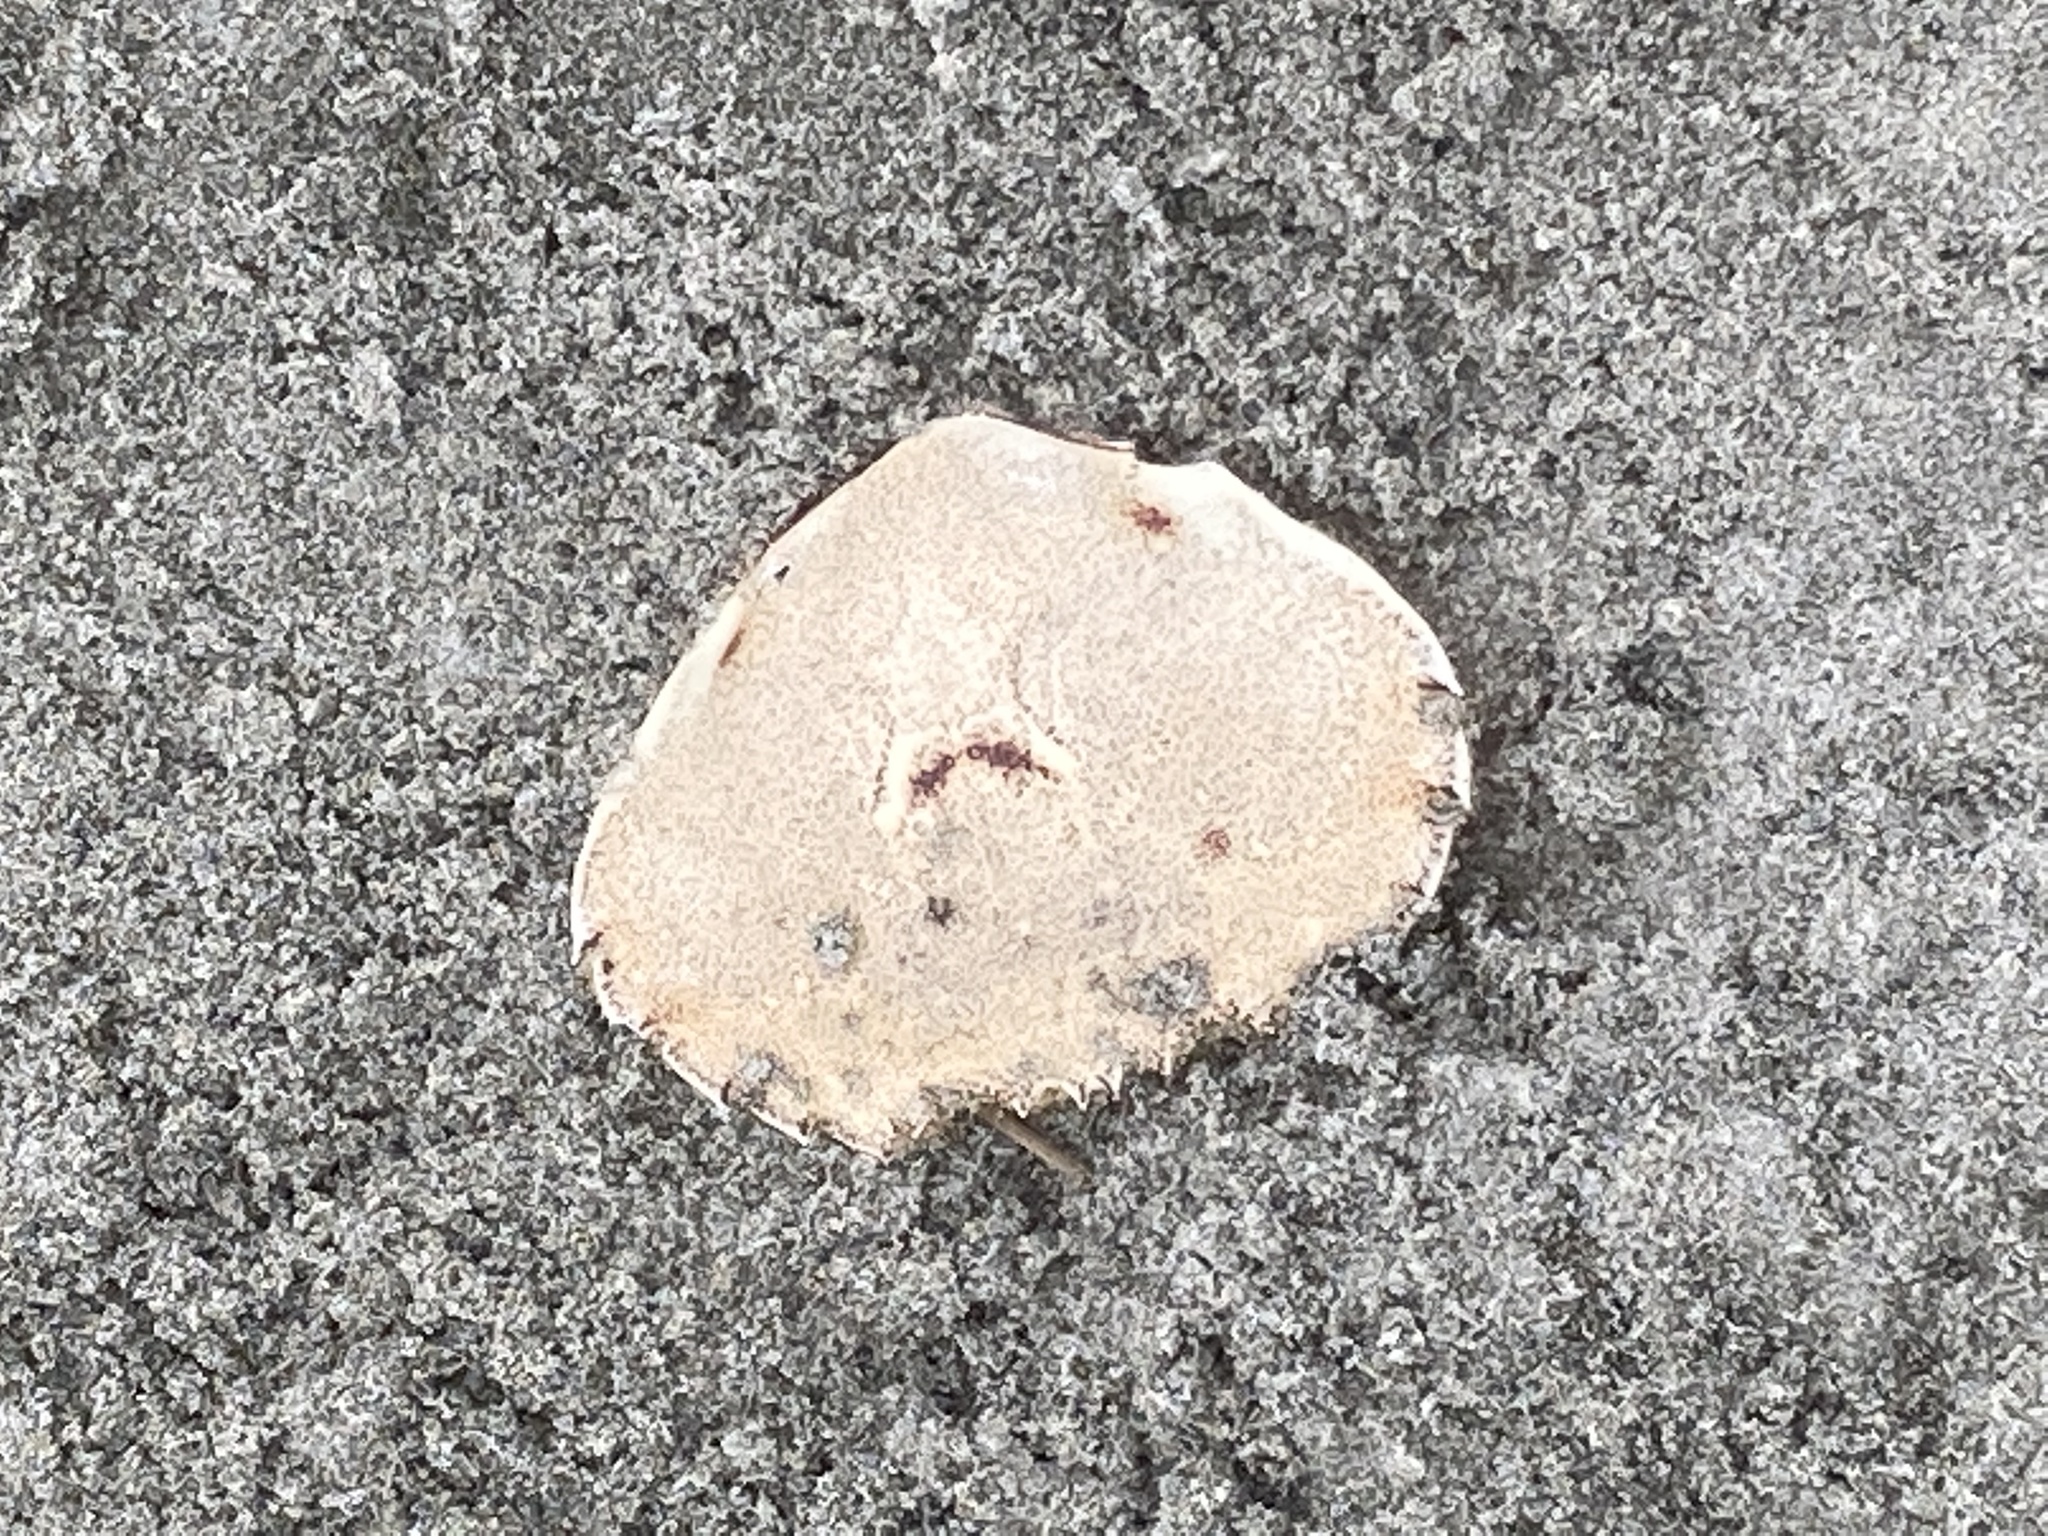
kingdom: Animalia
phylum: Arthropoda
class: Malacostraca
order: Decapoda
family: Ovalipidae
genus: Ovalipes
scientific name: Ovalipes catharus
